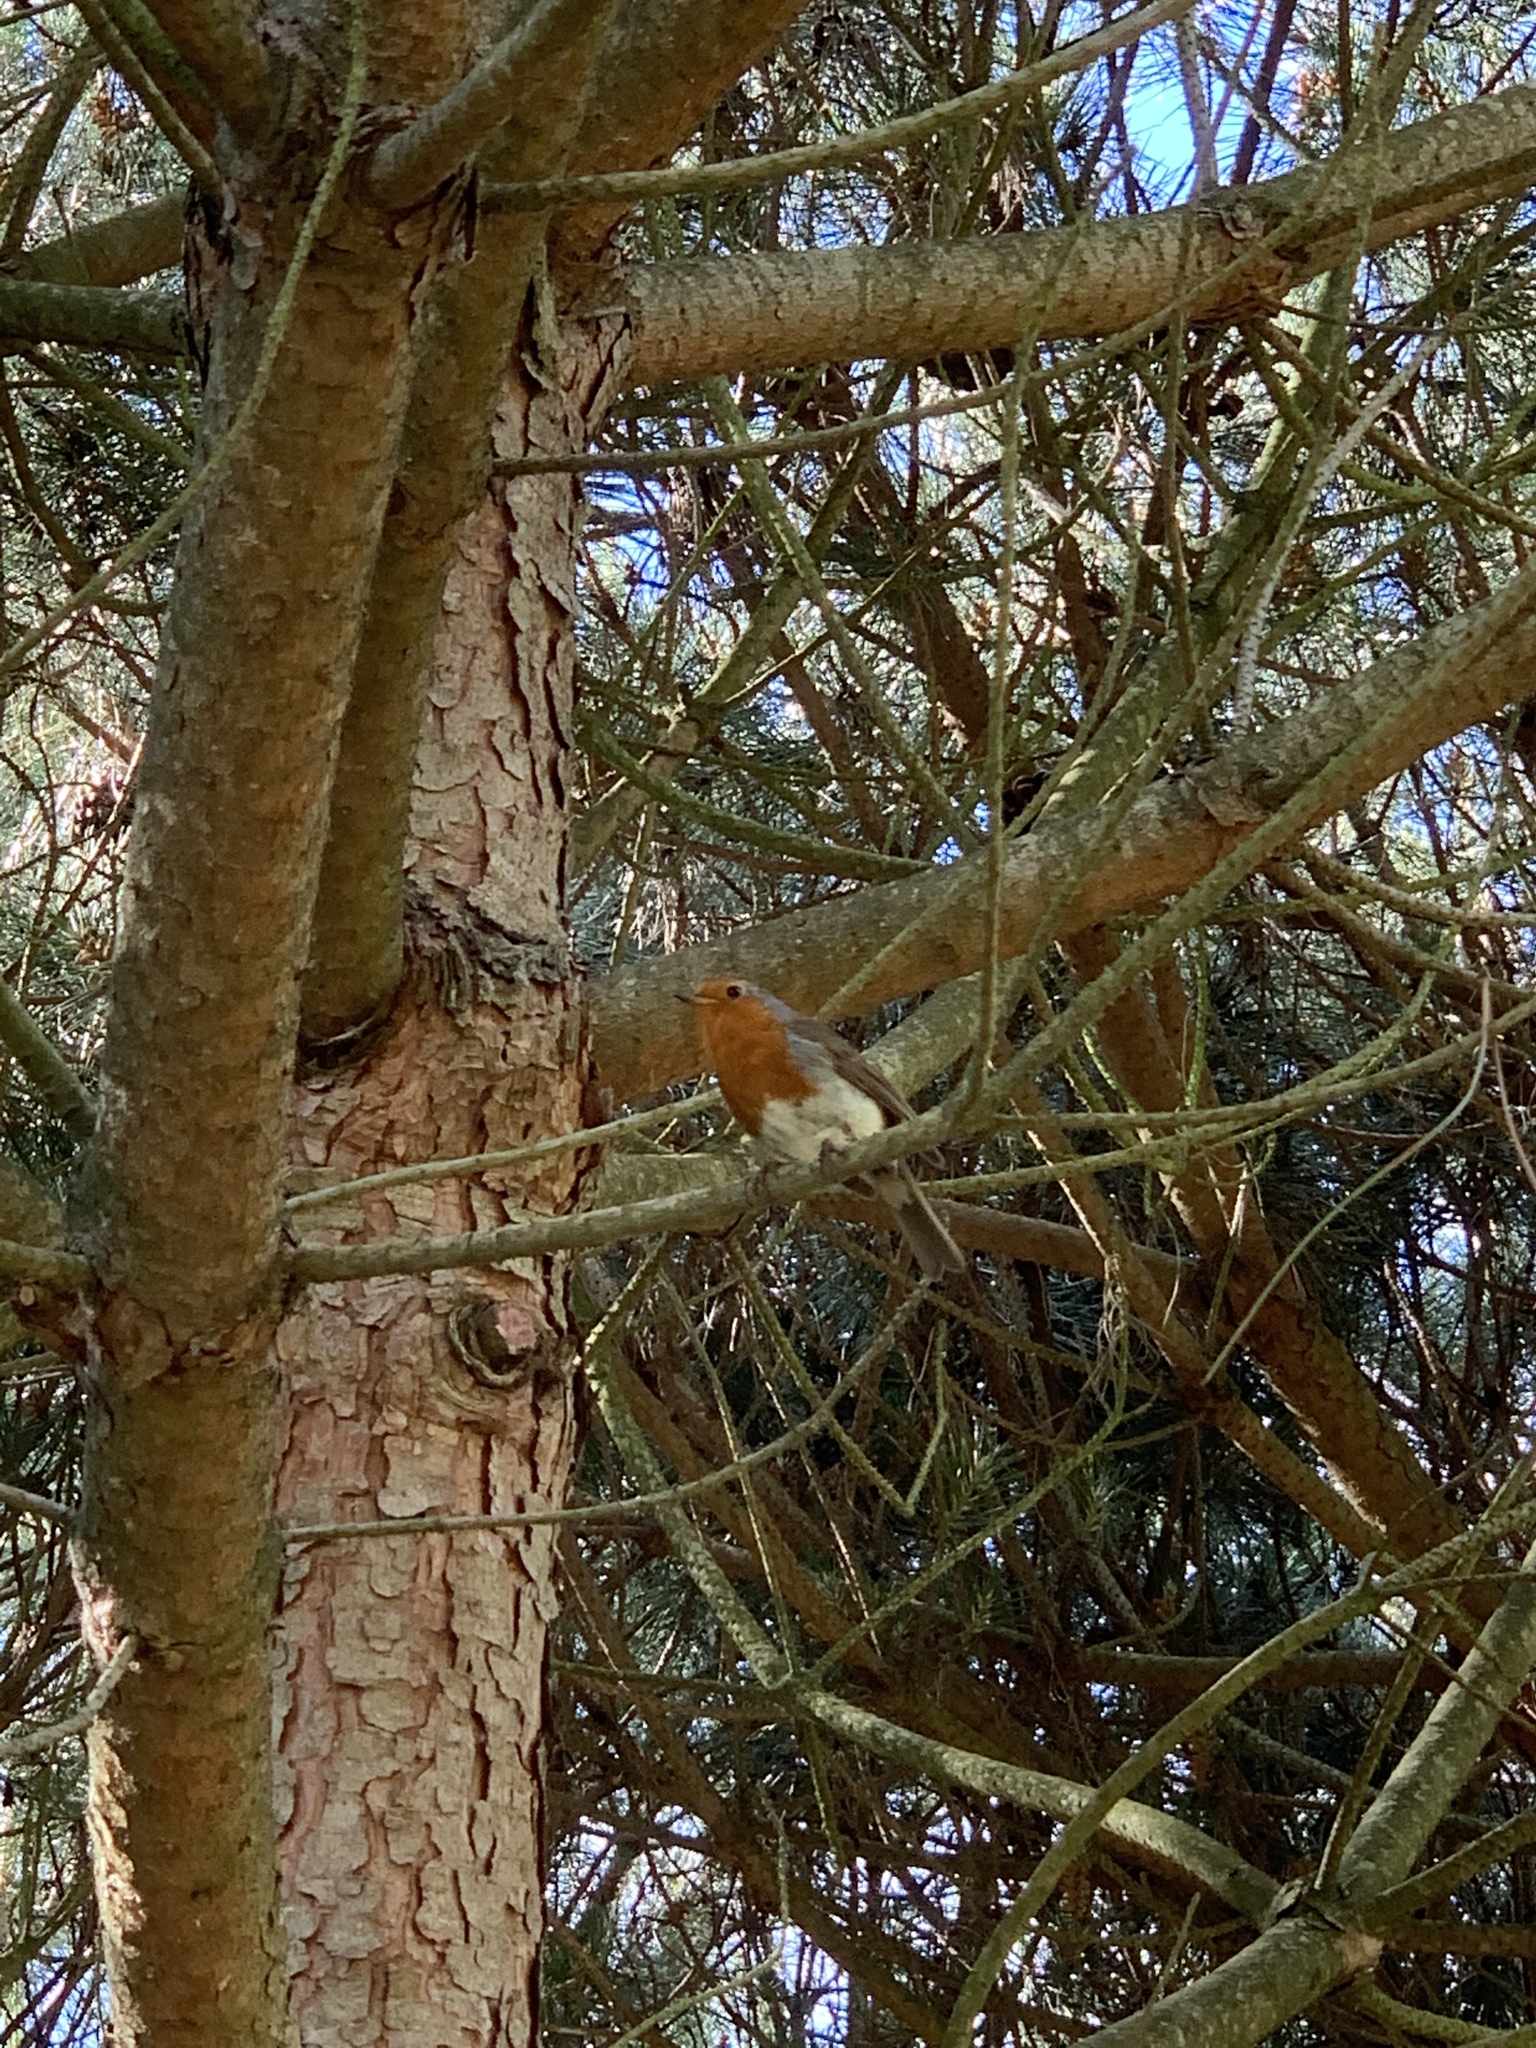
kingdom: Animalia
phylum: Chordata
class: Aves
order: Passeriformes
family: Muscicapidae
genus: Erithacus
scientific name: Erithacus rubecula
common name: European robin
